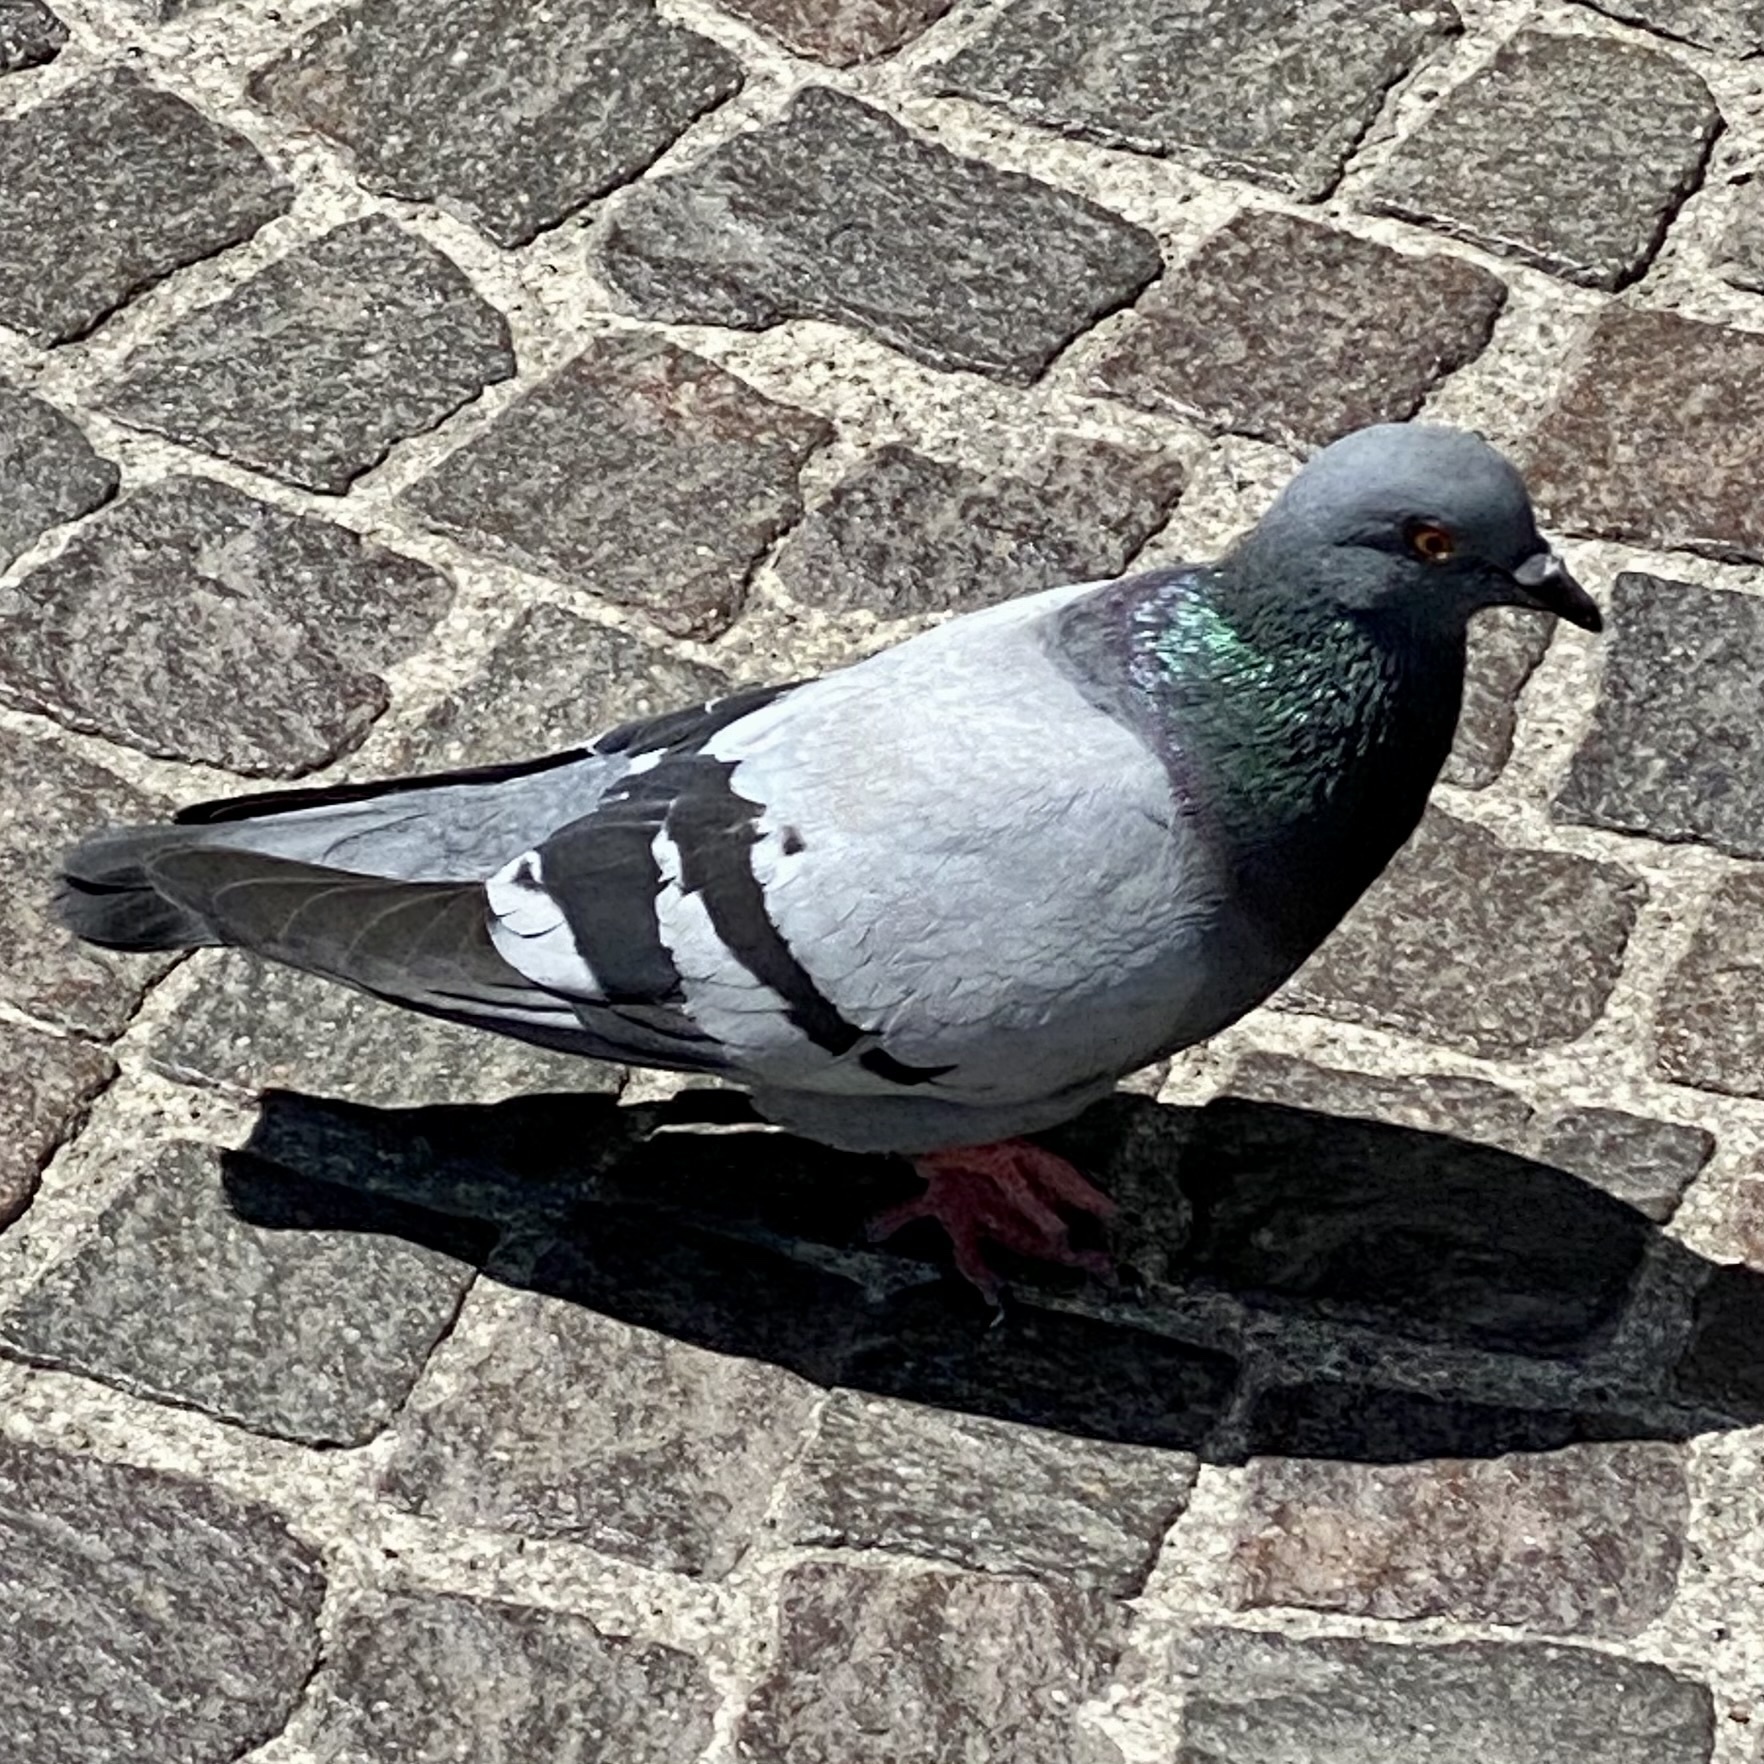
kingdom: Animalia
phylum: Chordata
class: Aves
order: Columbiformes
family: Columbidae
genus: Columba
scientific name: Columba livia
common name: Rock pigeon
